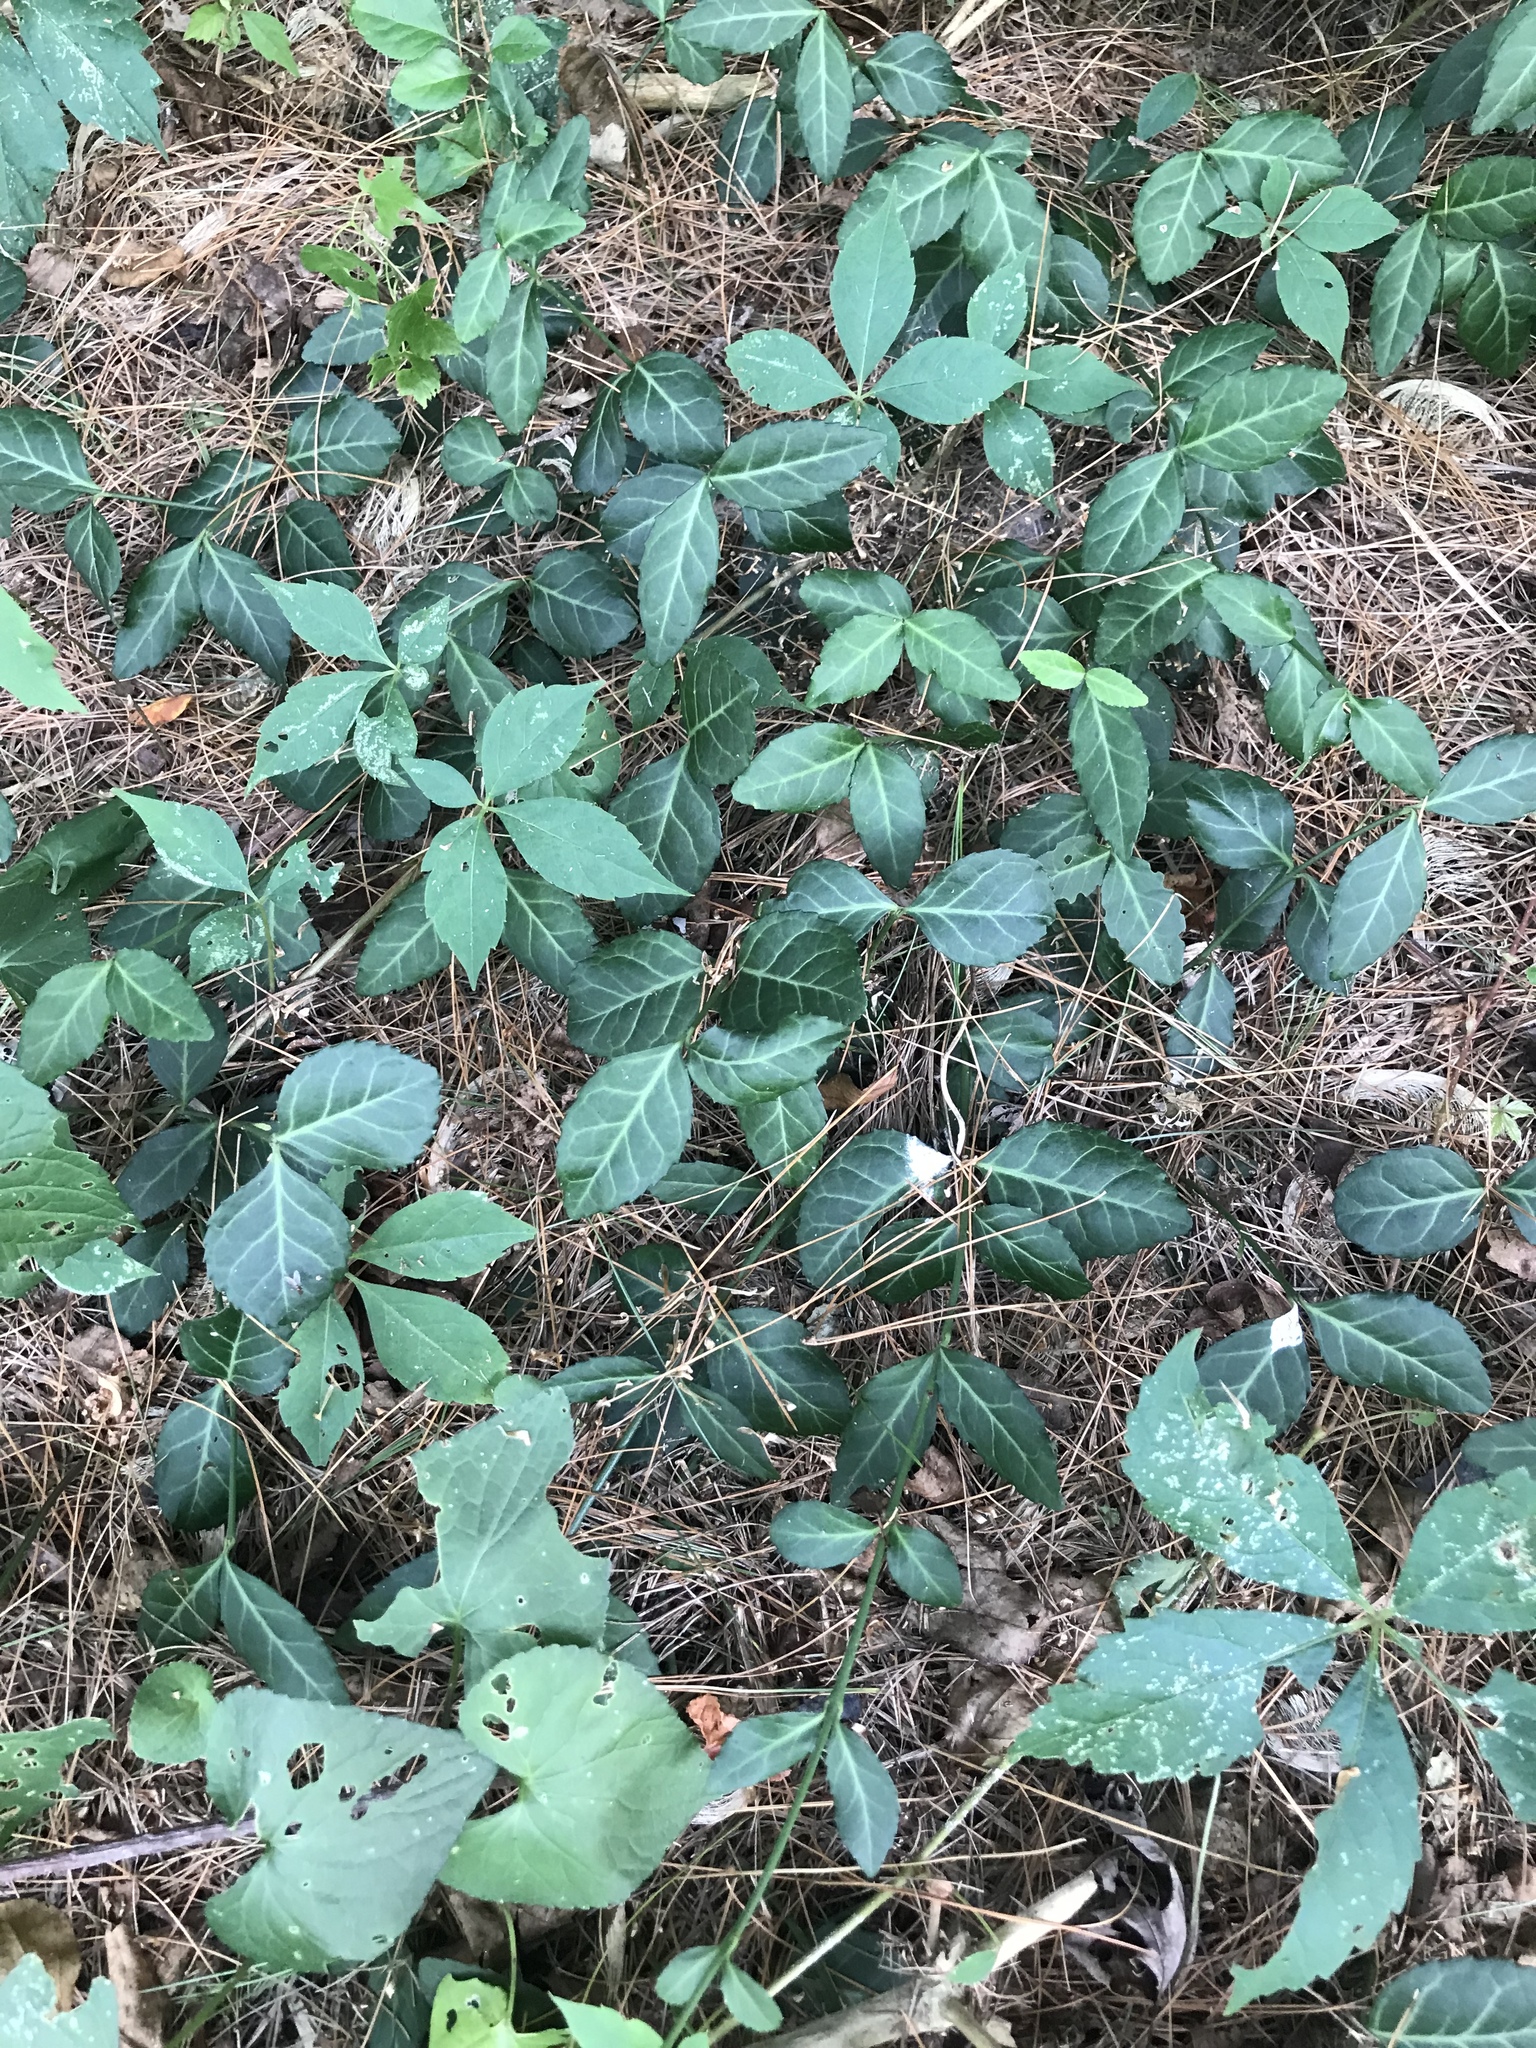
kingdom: Plantae
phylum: Tracheophyta
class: Magnoliopsida
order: Celastrales
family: Celastraceae
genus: Euonymus
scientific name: Euonymus fortunei
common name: Climbing euonymus
